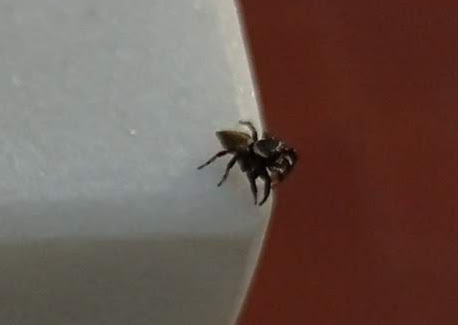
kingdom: Animalia
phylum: Arthropoda
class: Arachnida
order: Araneae
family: Salticidae
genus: Evarcha
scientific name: Evarcha jucunda
